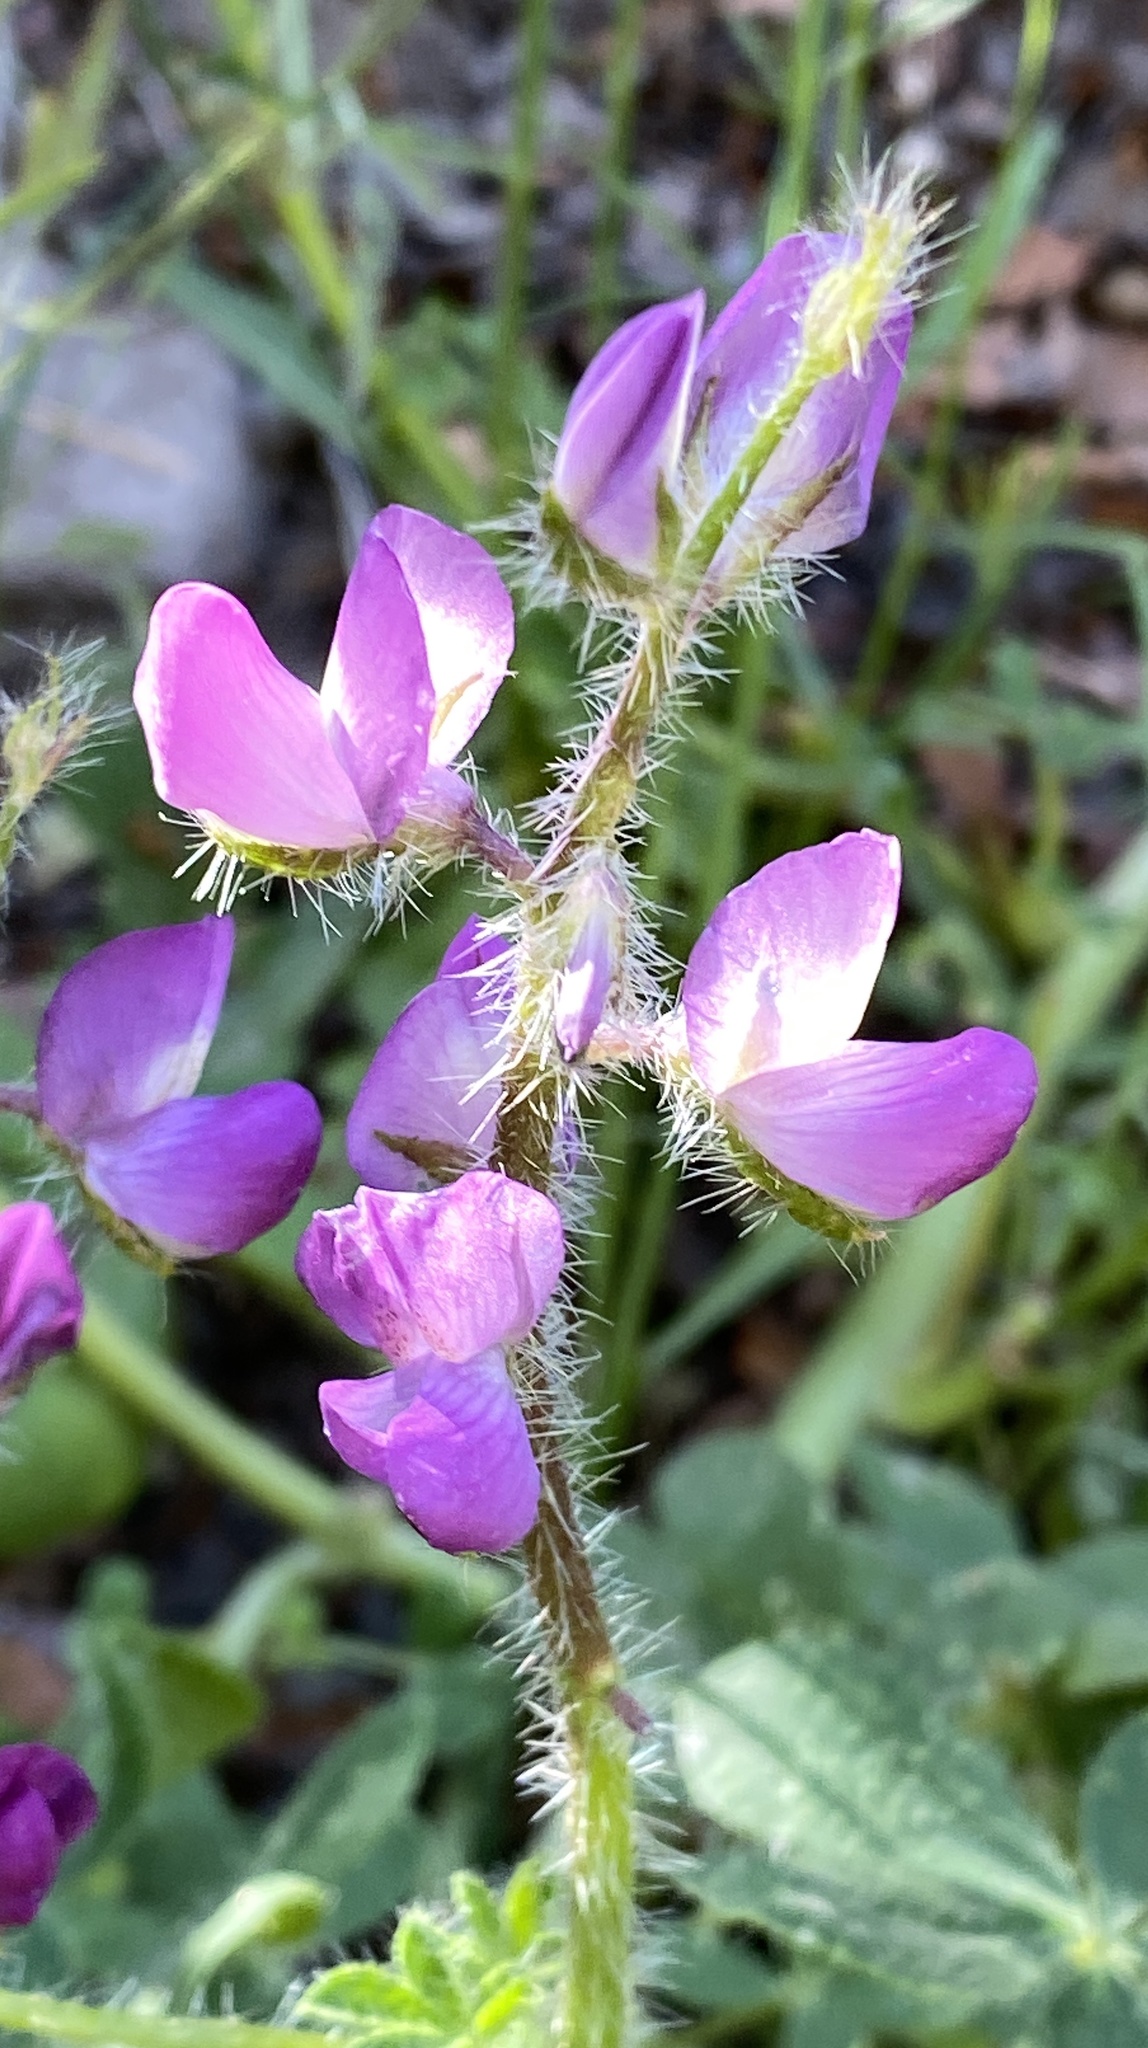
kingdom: Plantae
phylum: Tracheophyta
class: Magnoliopsida
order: Fabales
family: Fabaceae
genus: Lupinus
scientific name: Lupinus hirsutissimus
